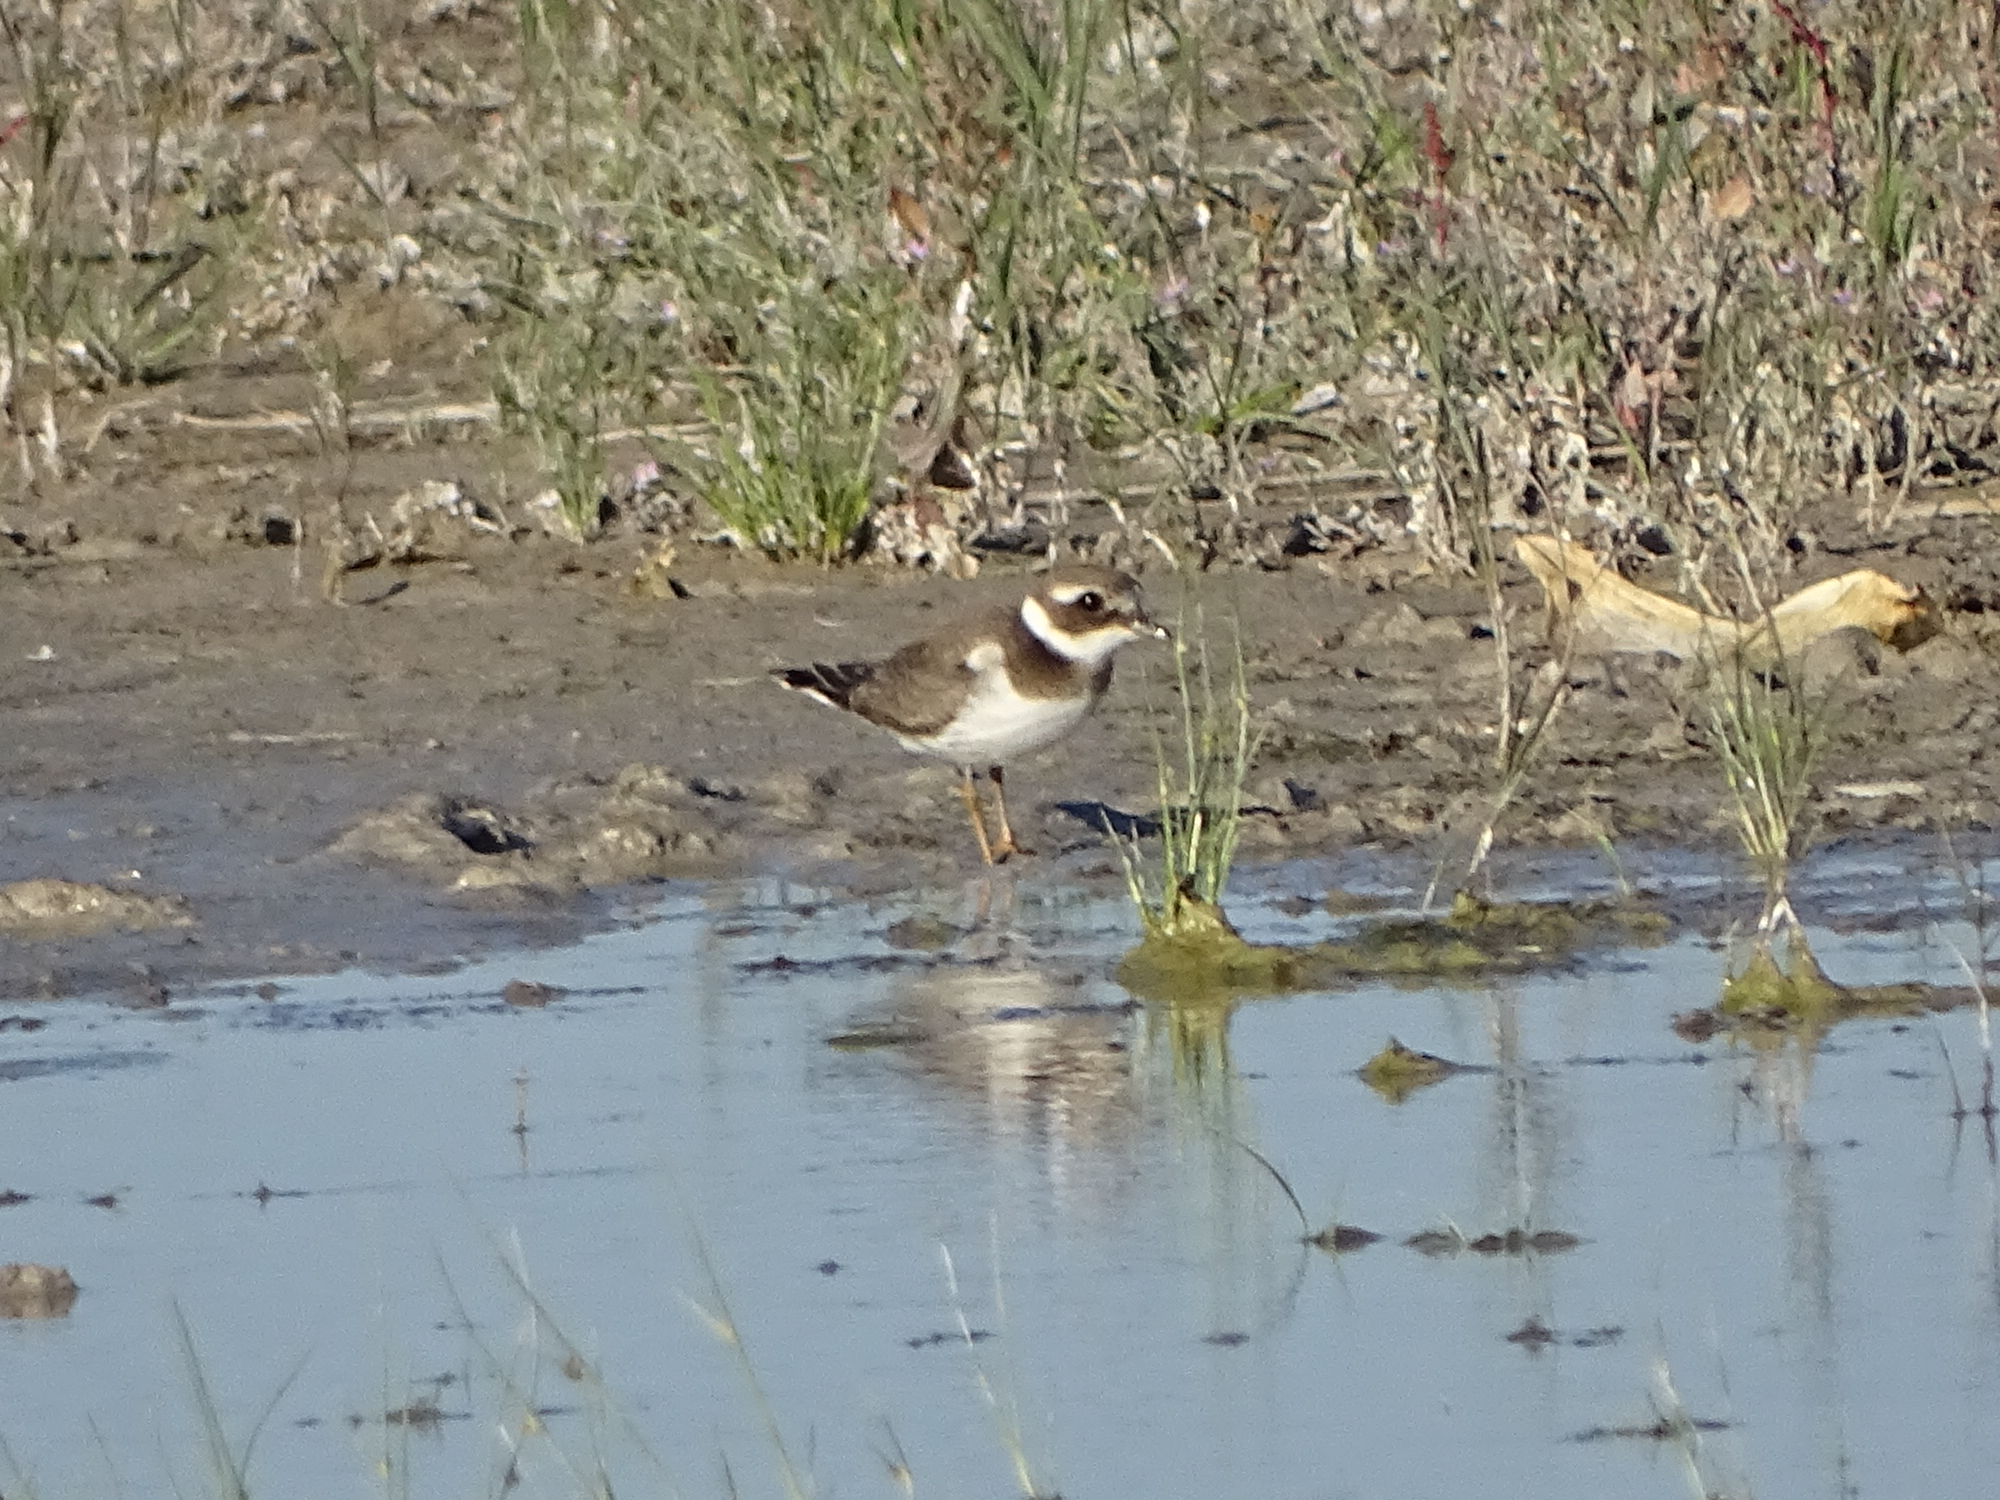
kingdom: Animalia
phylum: Chordata
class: Aves
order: Charadriiformes
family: Charadriidae
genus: Charadrius
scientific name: Charadrius hiaticula
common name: Common ringed plover
